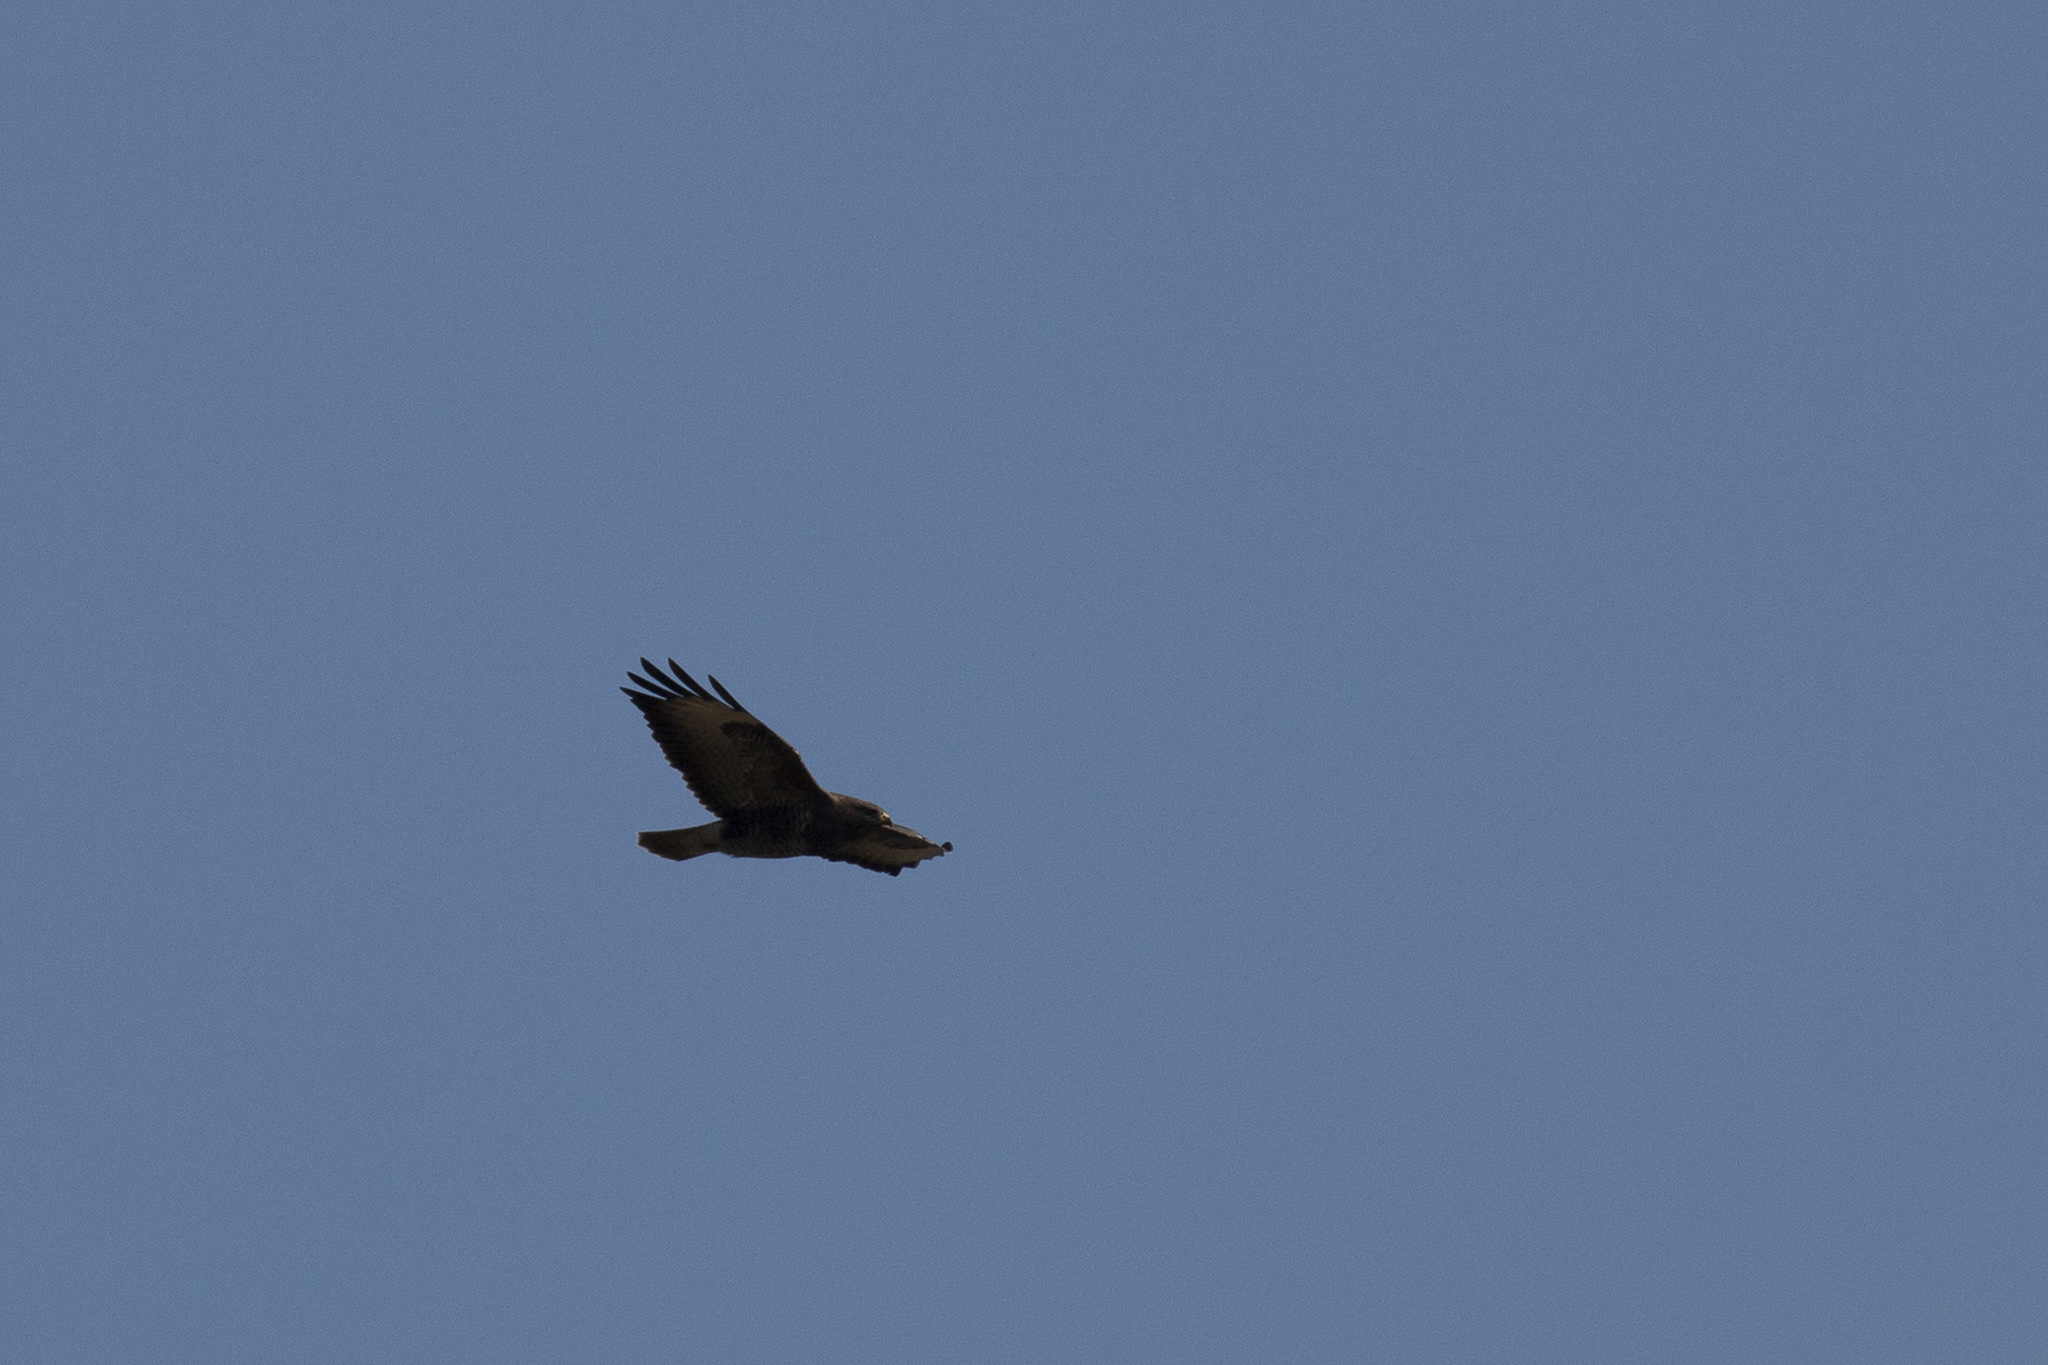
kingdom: Animalia
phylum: Chordata
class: Aves
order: Accipitriformes
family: Accipitridae
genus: Buteo
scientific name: Buteo buteo
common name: Common buzzard
